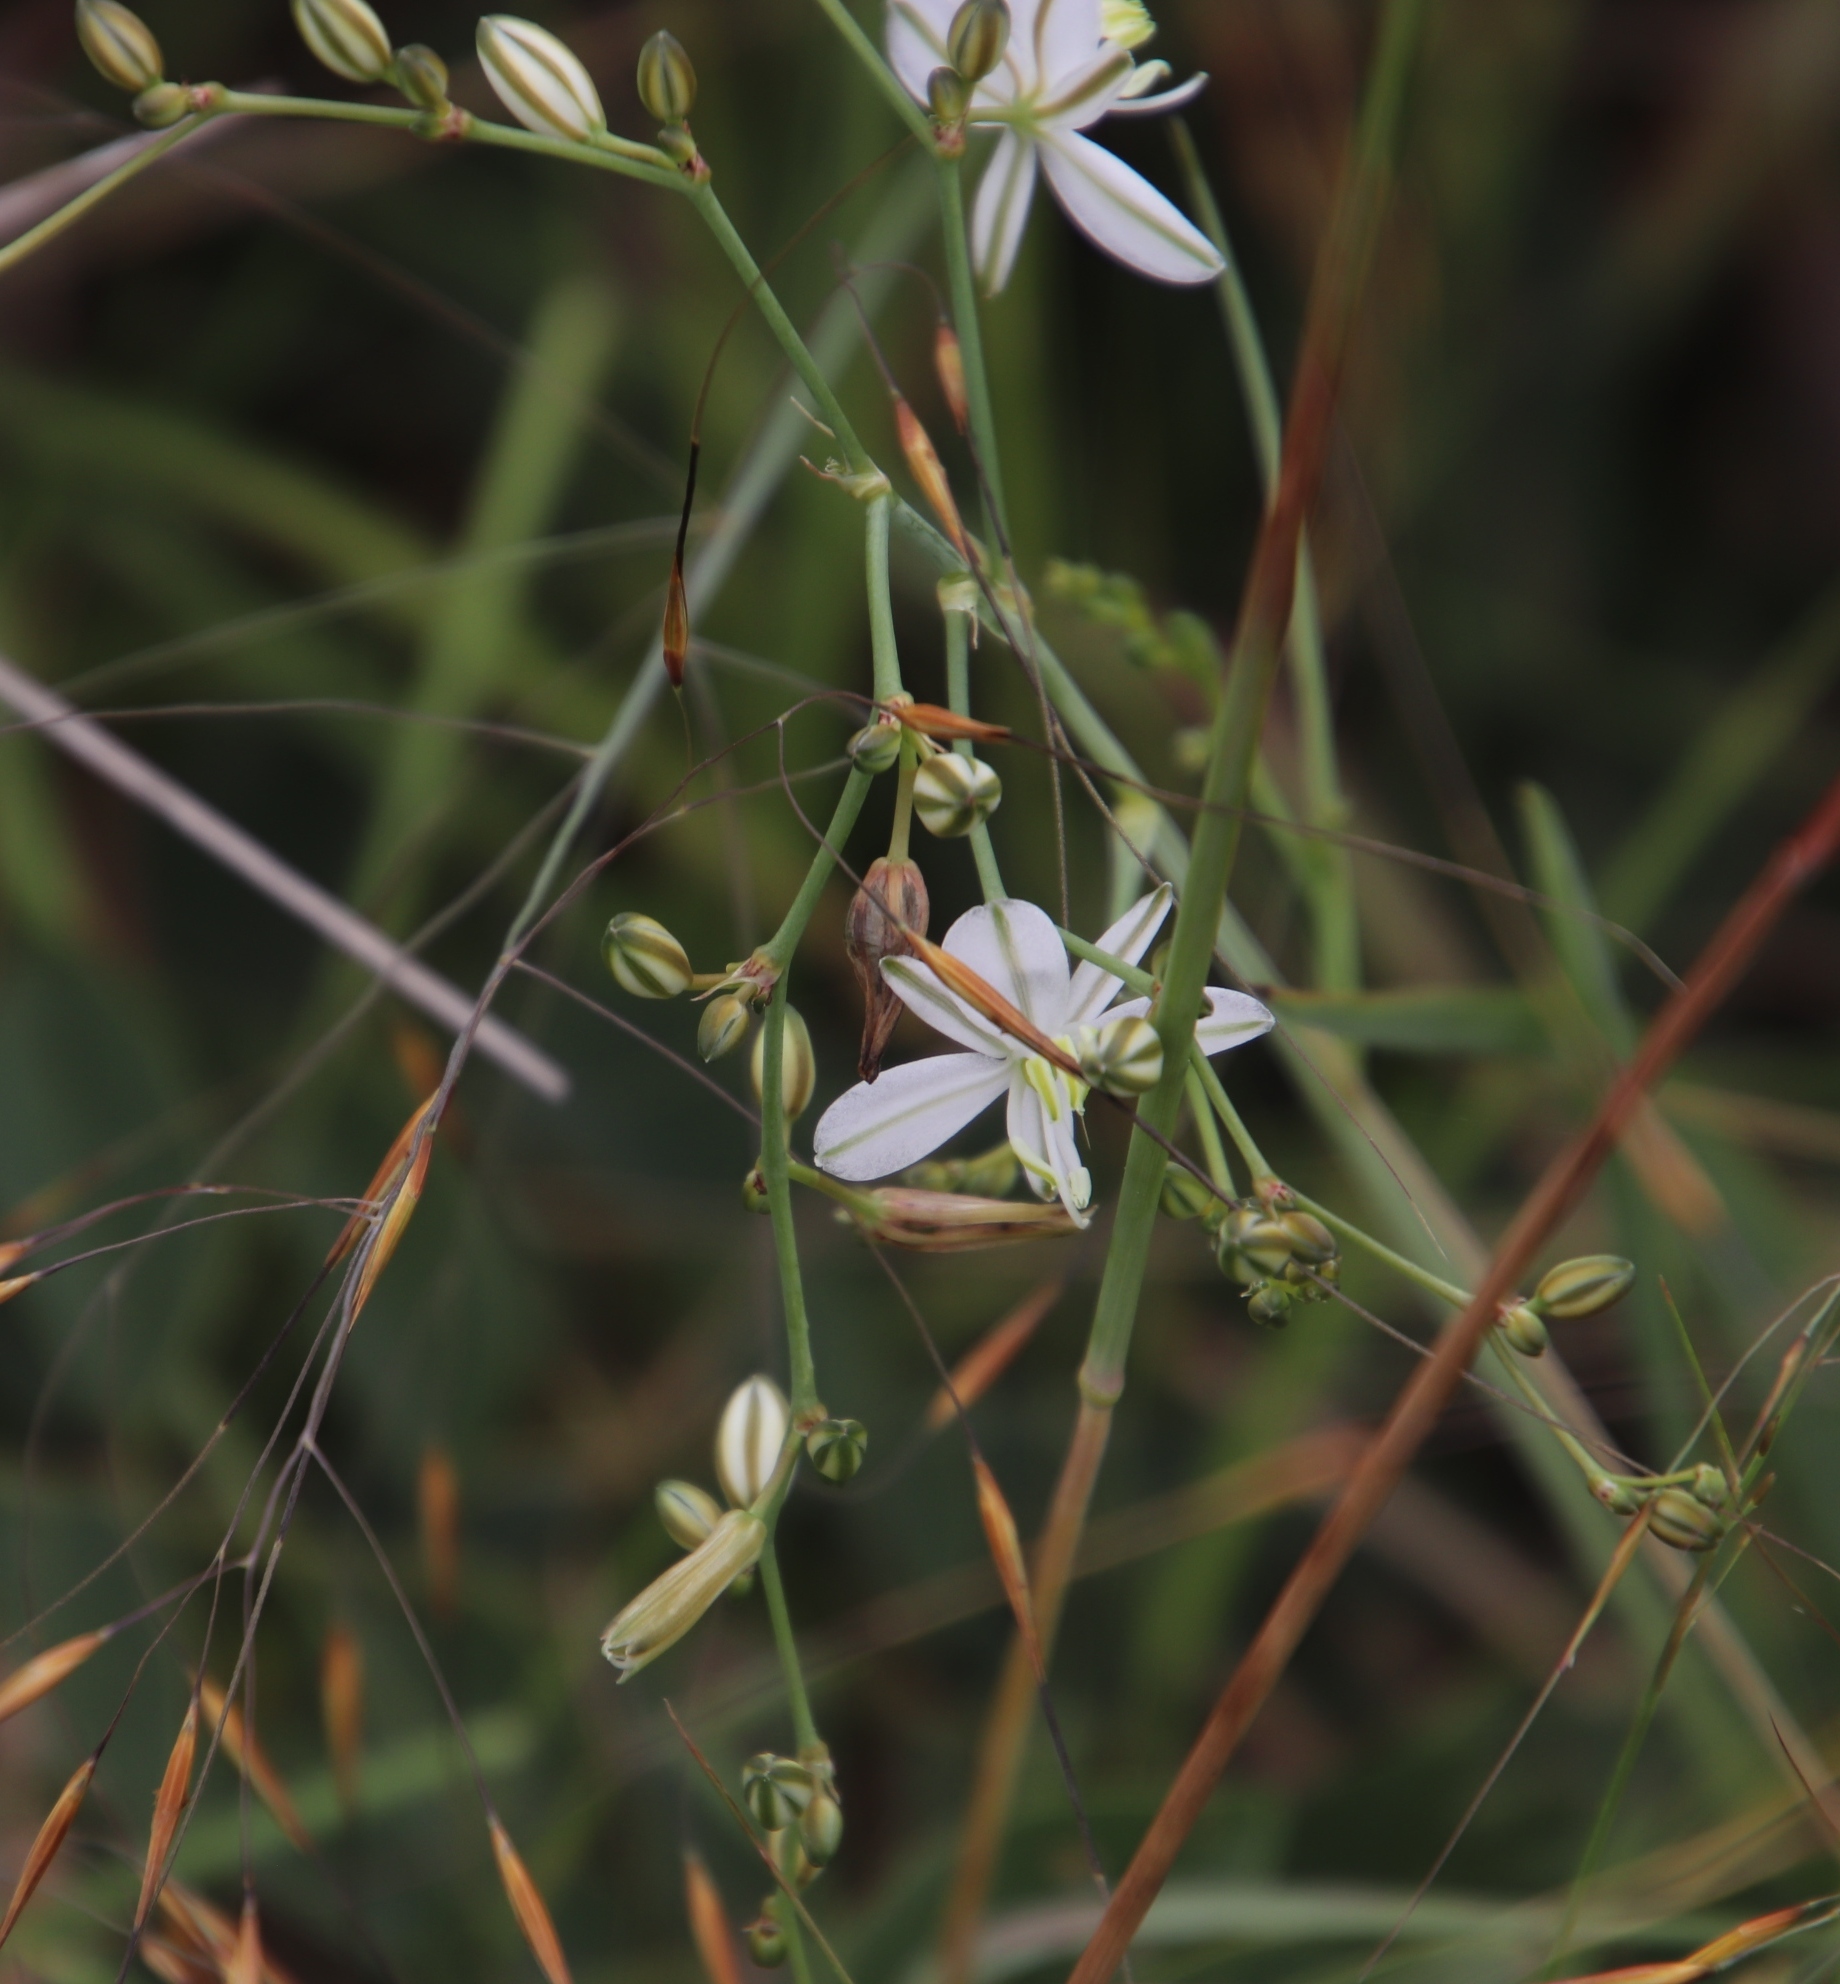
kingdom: Plantae
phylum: Tracheophyta
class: Liliopsida
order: Asparagales
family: Asparagaceae
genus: Chlorophytum
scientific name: Chlorophytum galpinii
